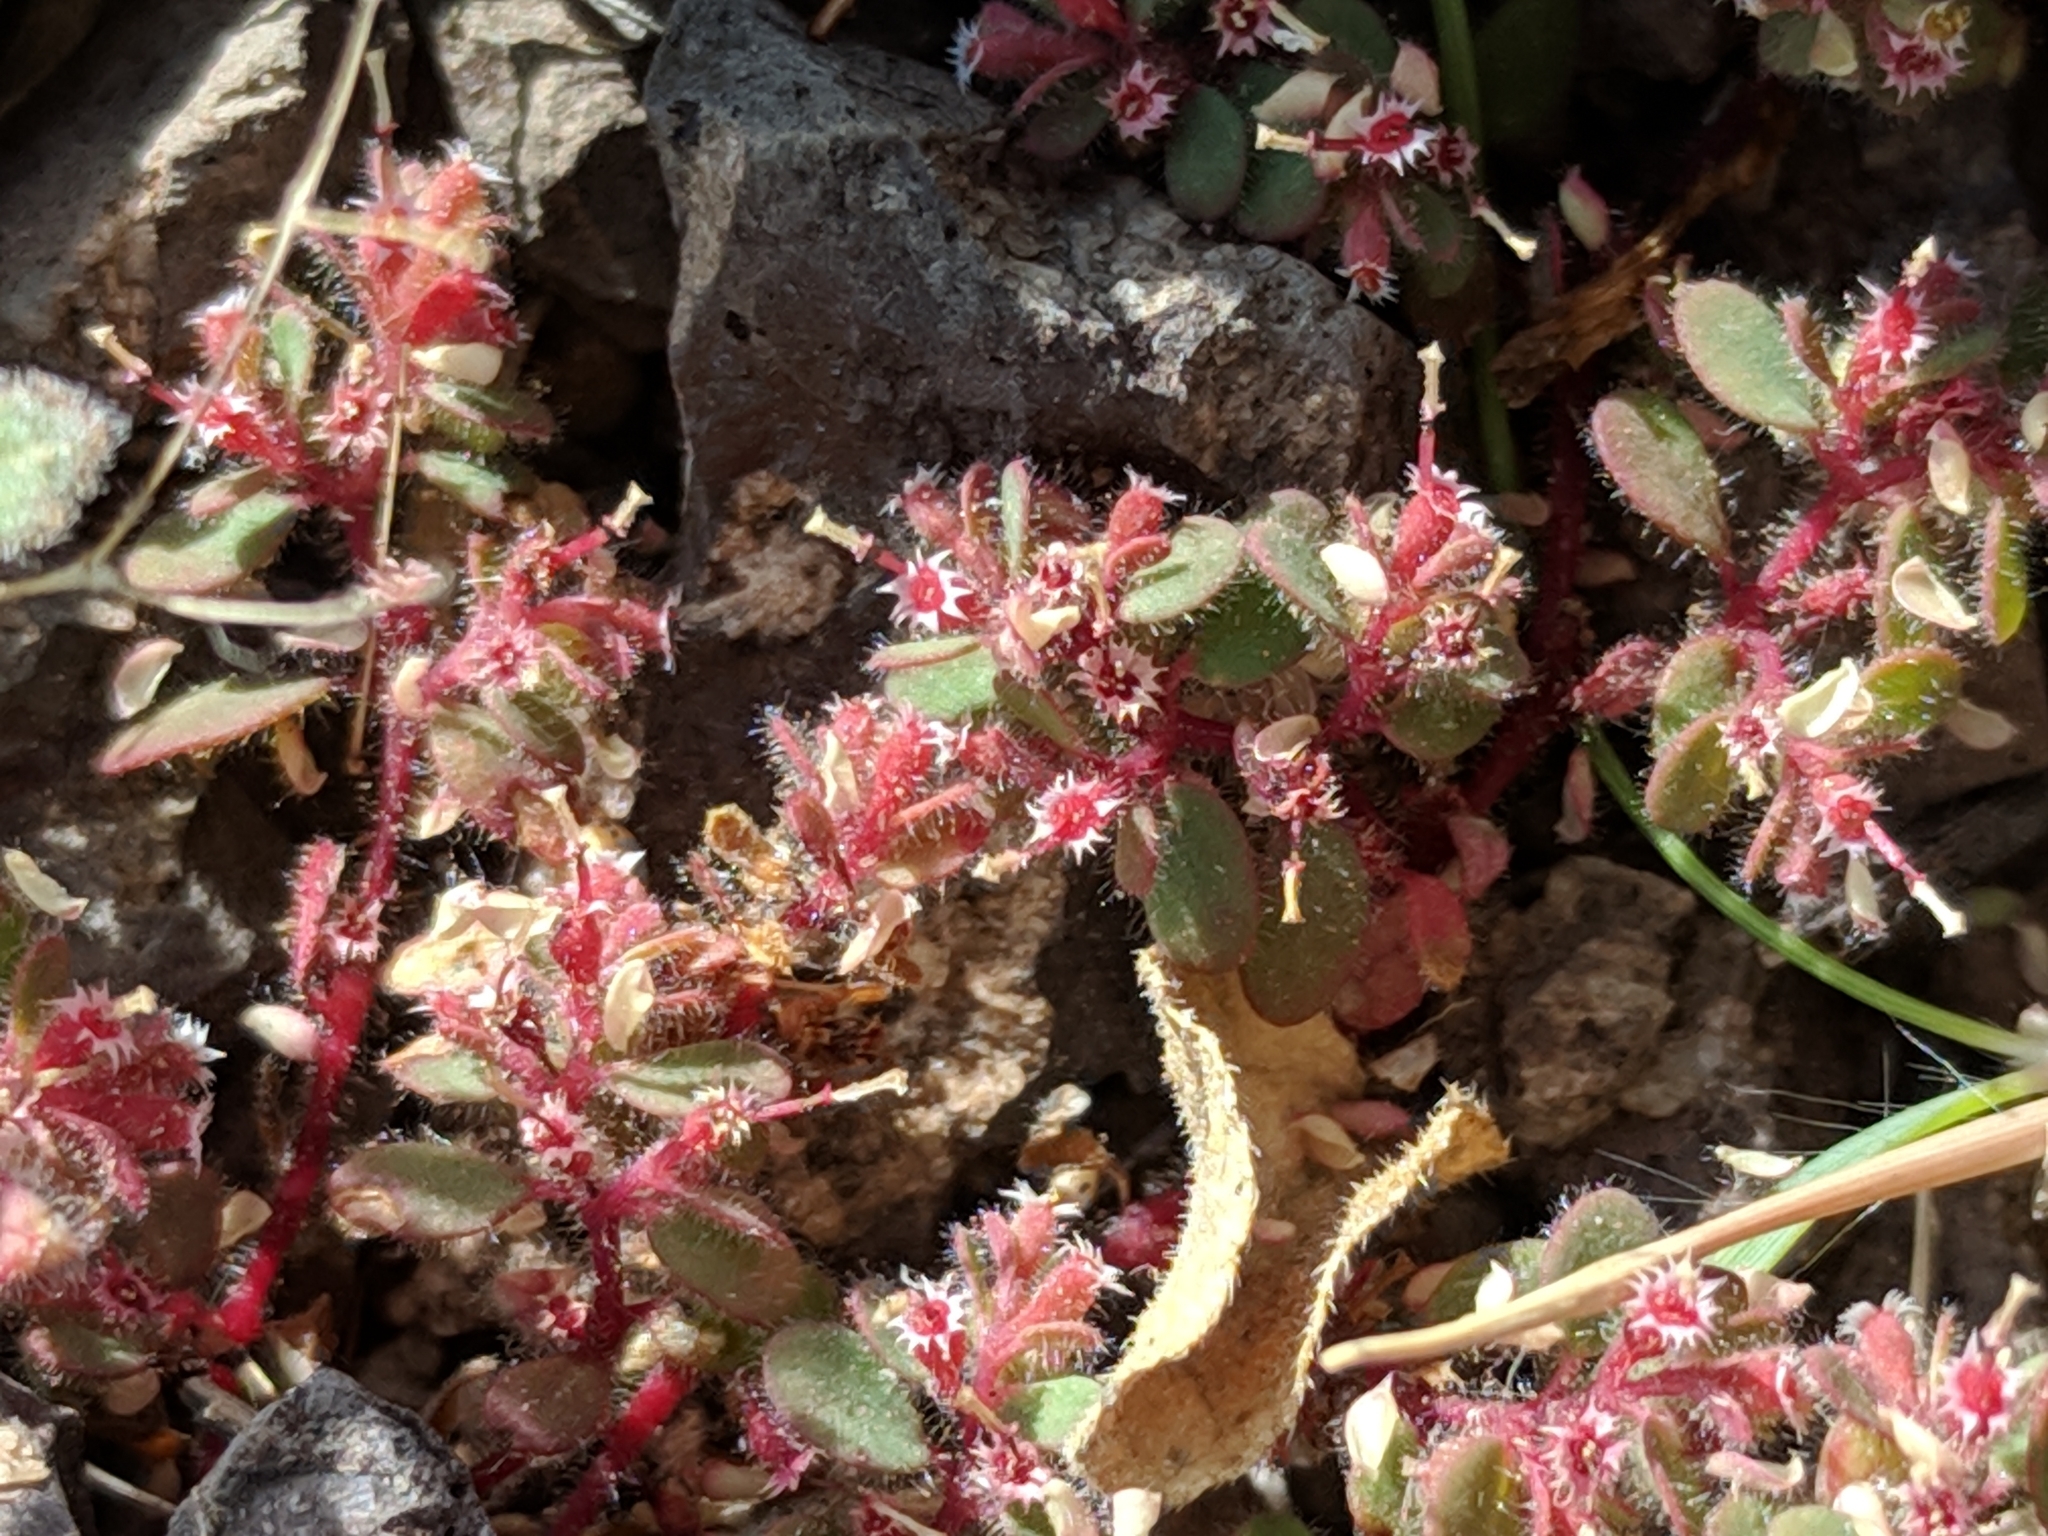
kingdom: Plantae
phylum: Tracheophyta
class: Magnoliopsida
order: Malpighiales
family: Euphorbiaceae
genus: Euphorbia
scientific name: Euphorbia setiloba
